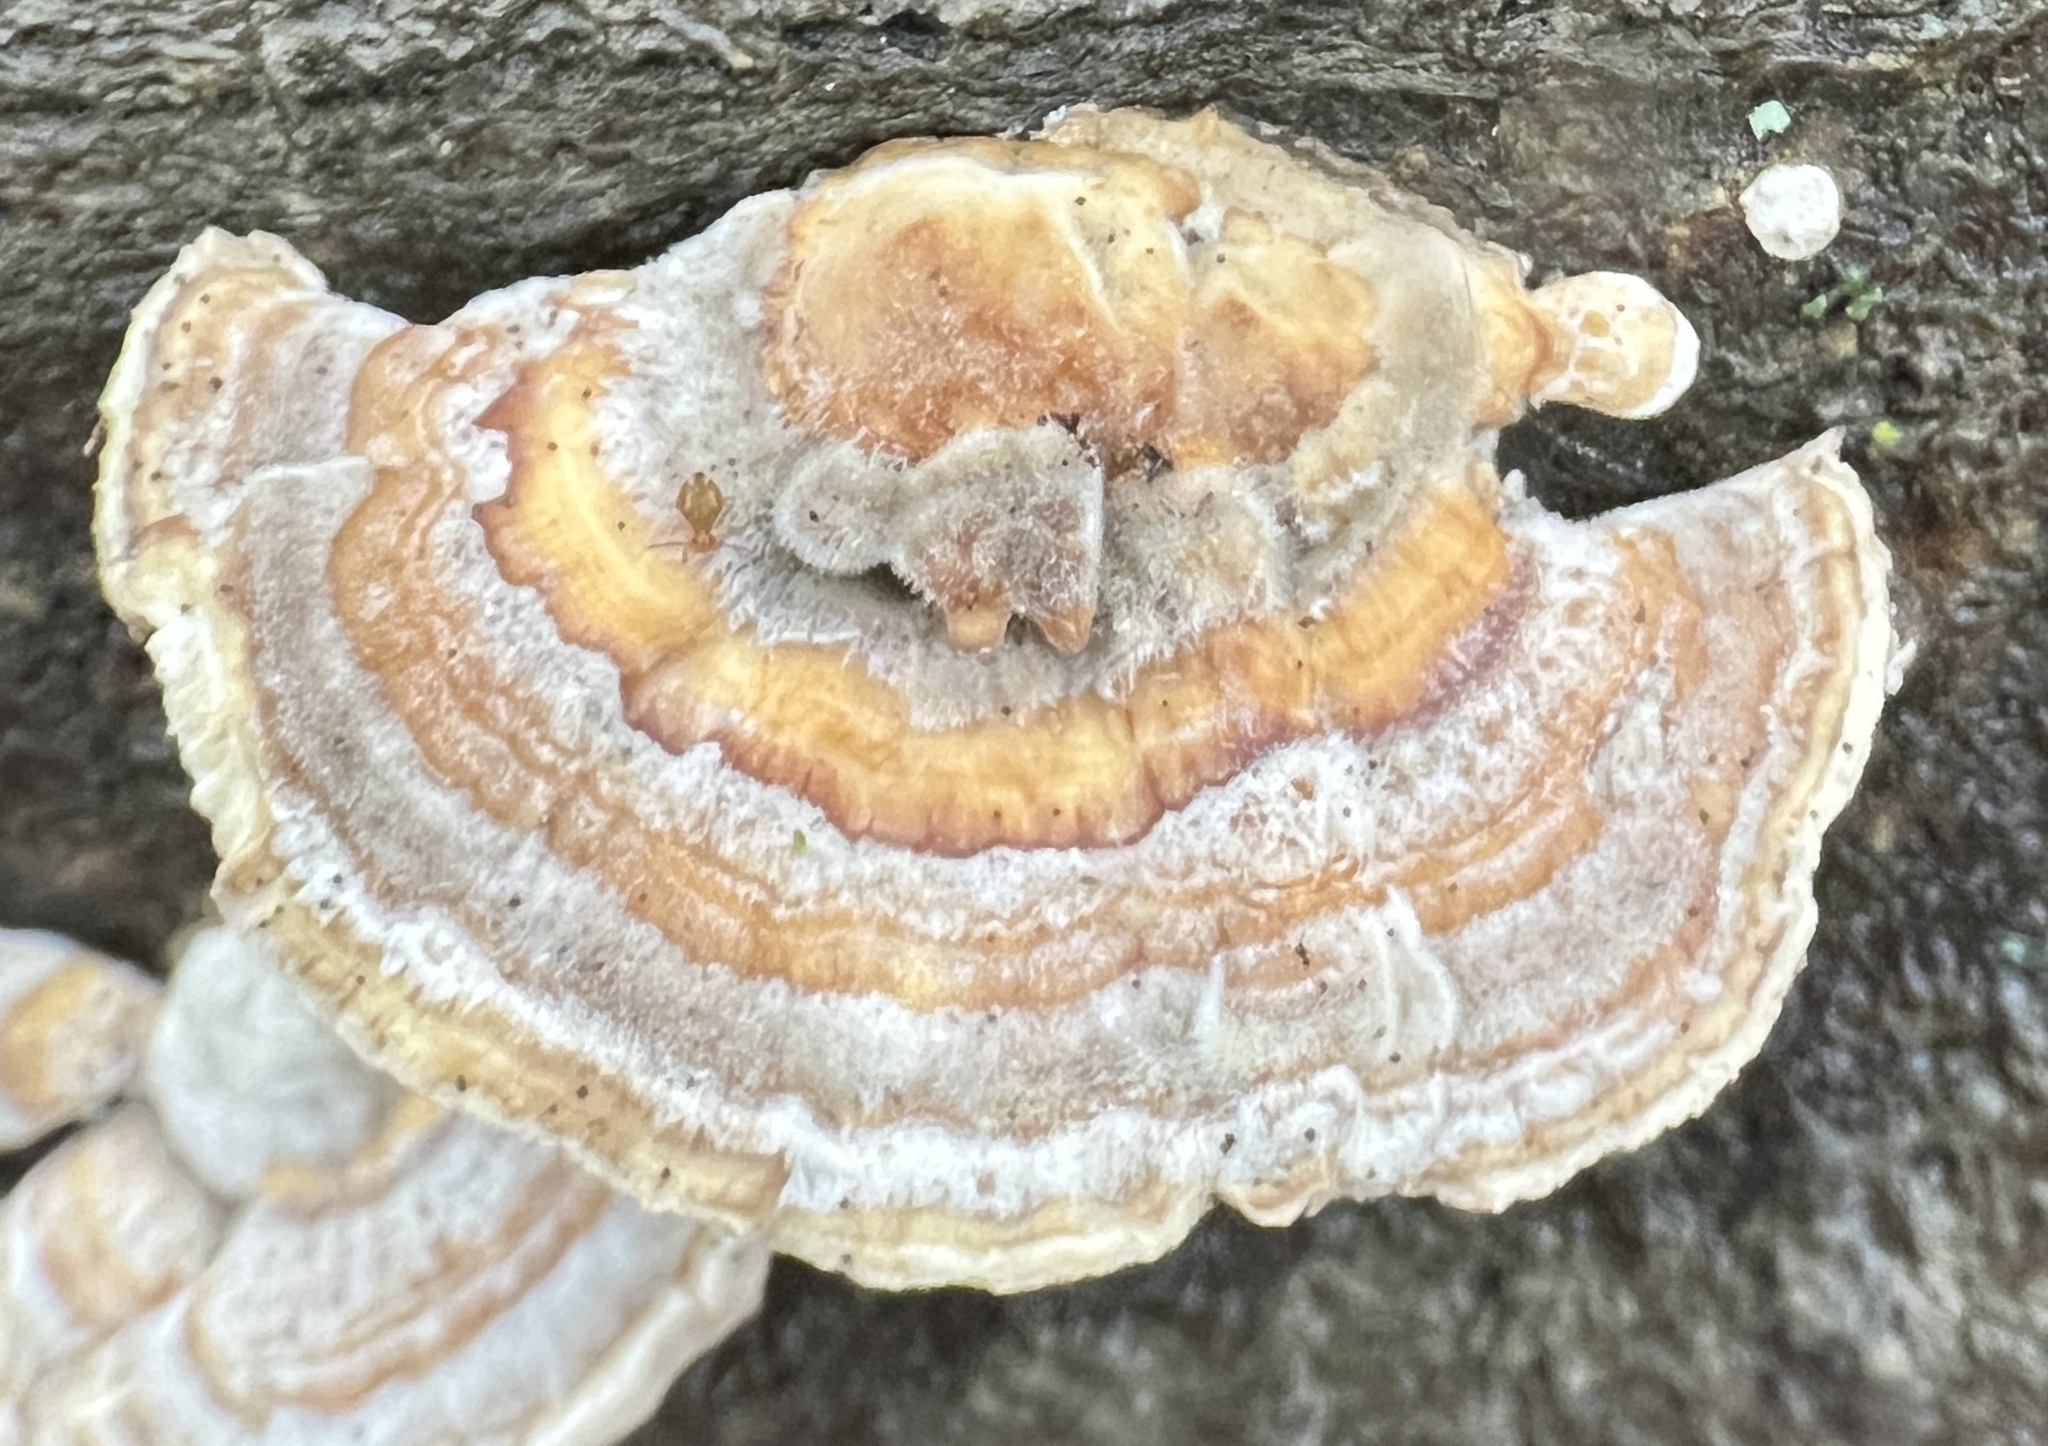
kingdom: Fungi
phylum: Basidiomycota
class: Agaricomycetes
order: Polyporales
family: Polyporaceae
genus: Trametes
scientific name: Trametes versicolor
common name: Turkeytail
